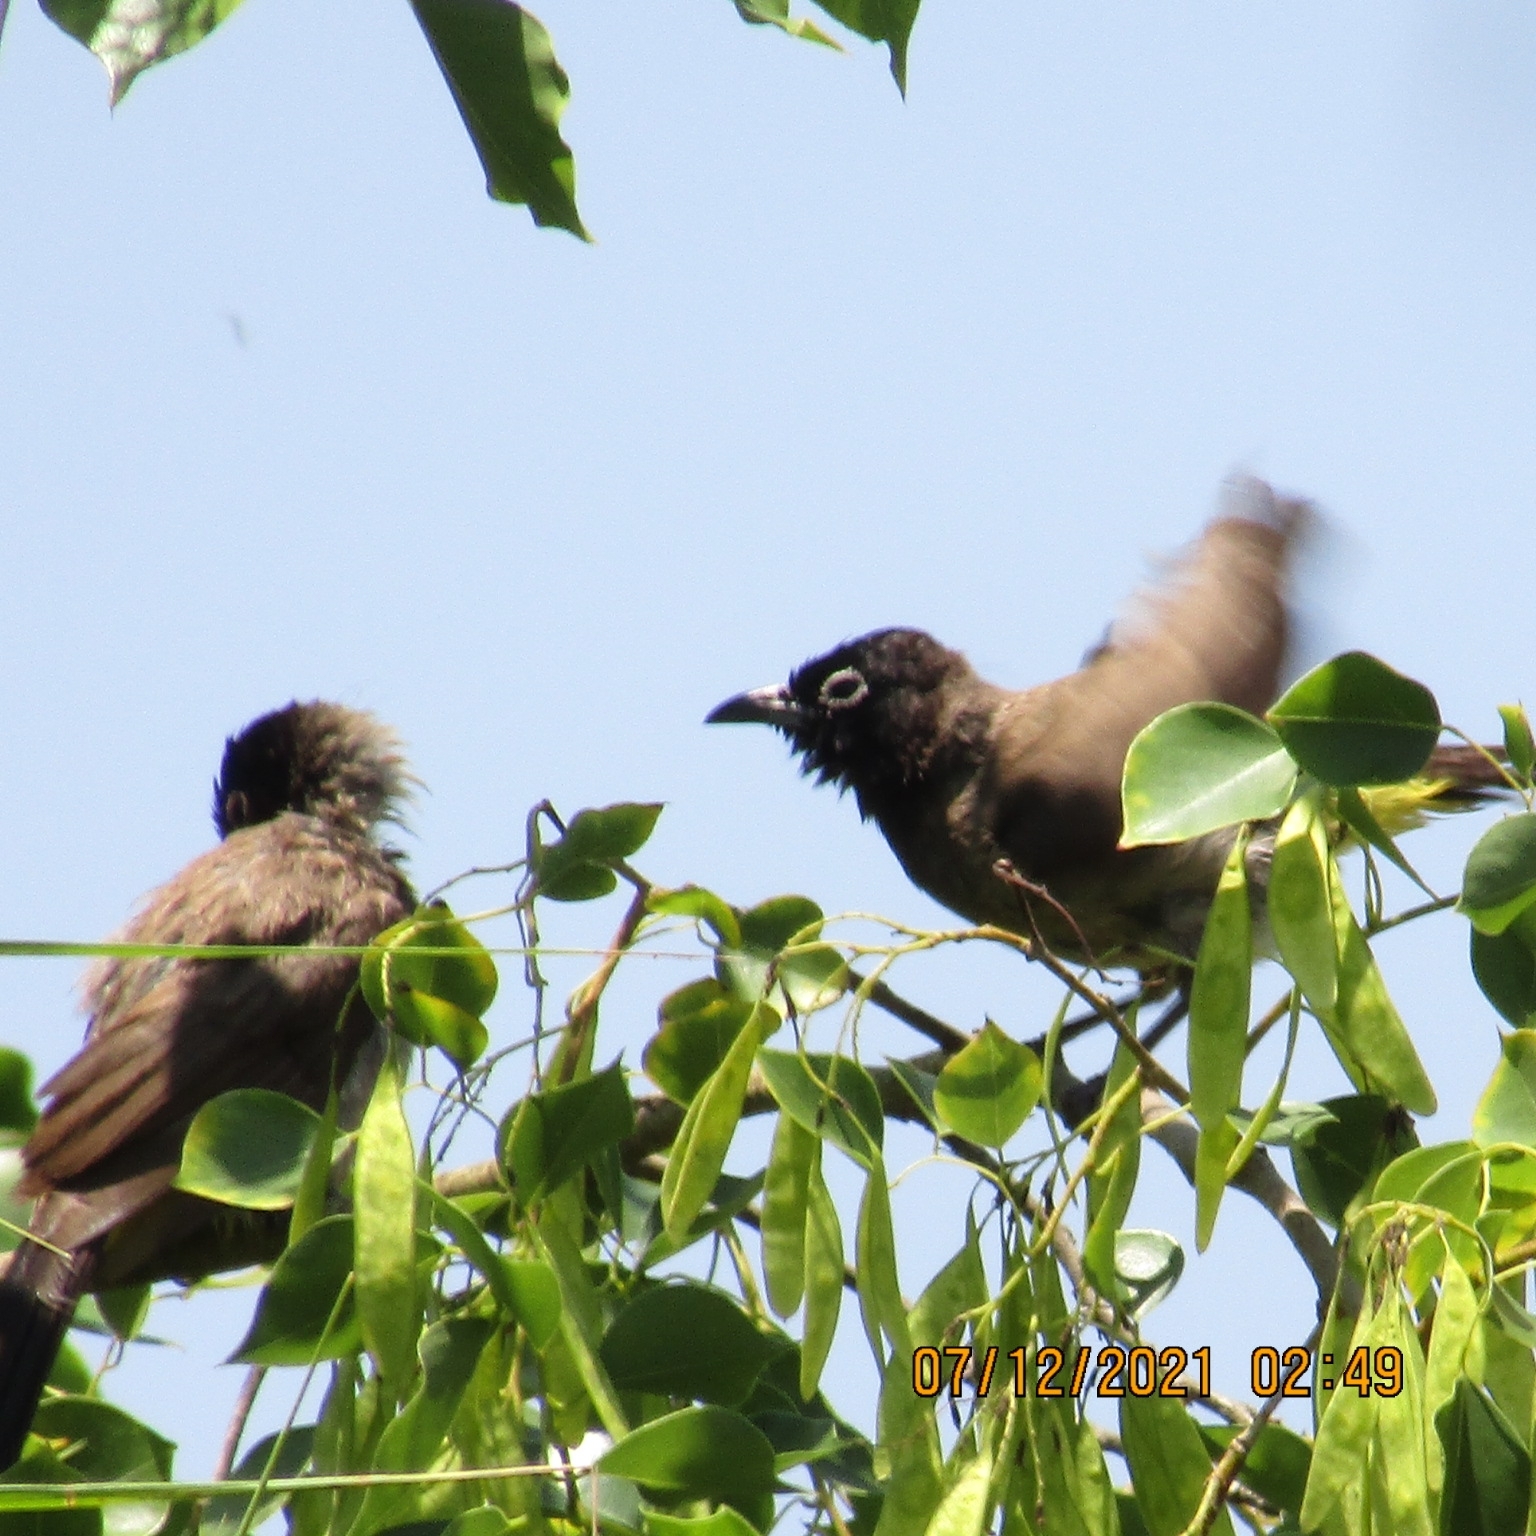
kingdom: Animalia
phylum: Chordata
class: Aves
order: Passeriformes
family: Pycnonotidae
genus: Pycnonotus
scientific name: Pycnonotus xanthopygos
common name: White-spectacled bulbul
